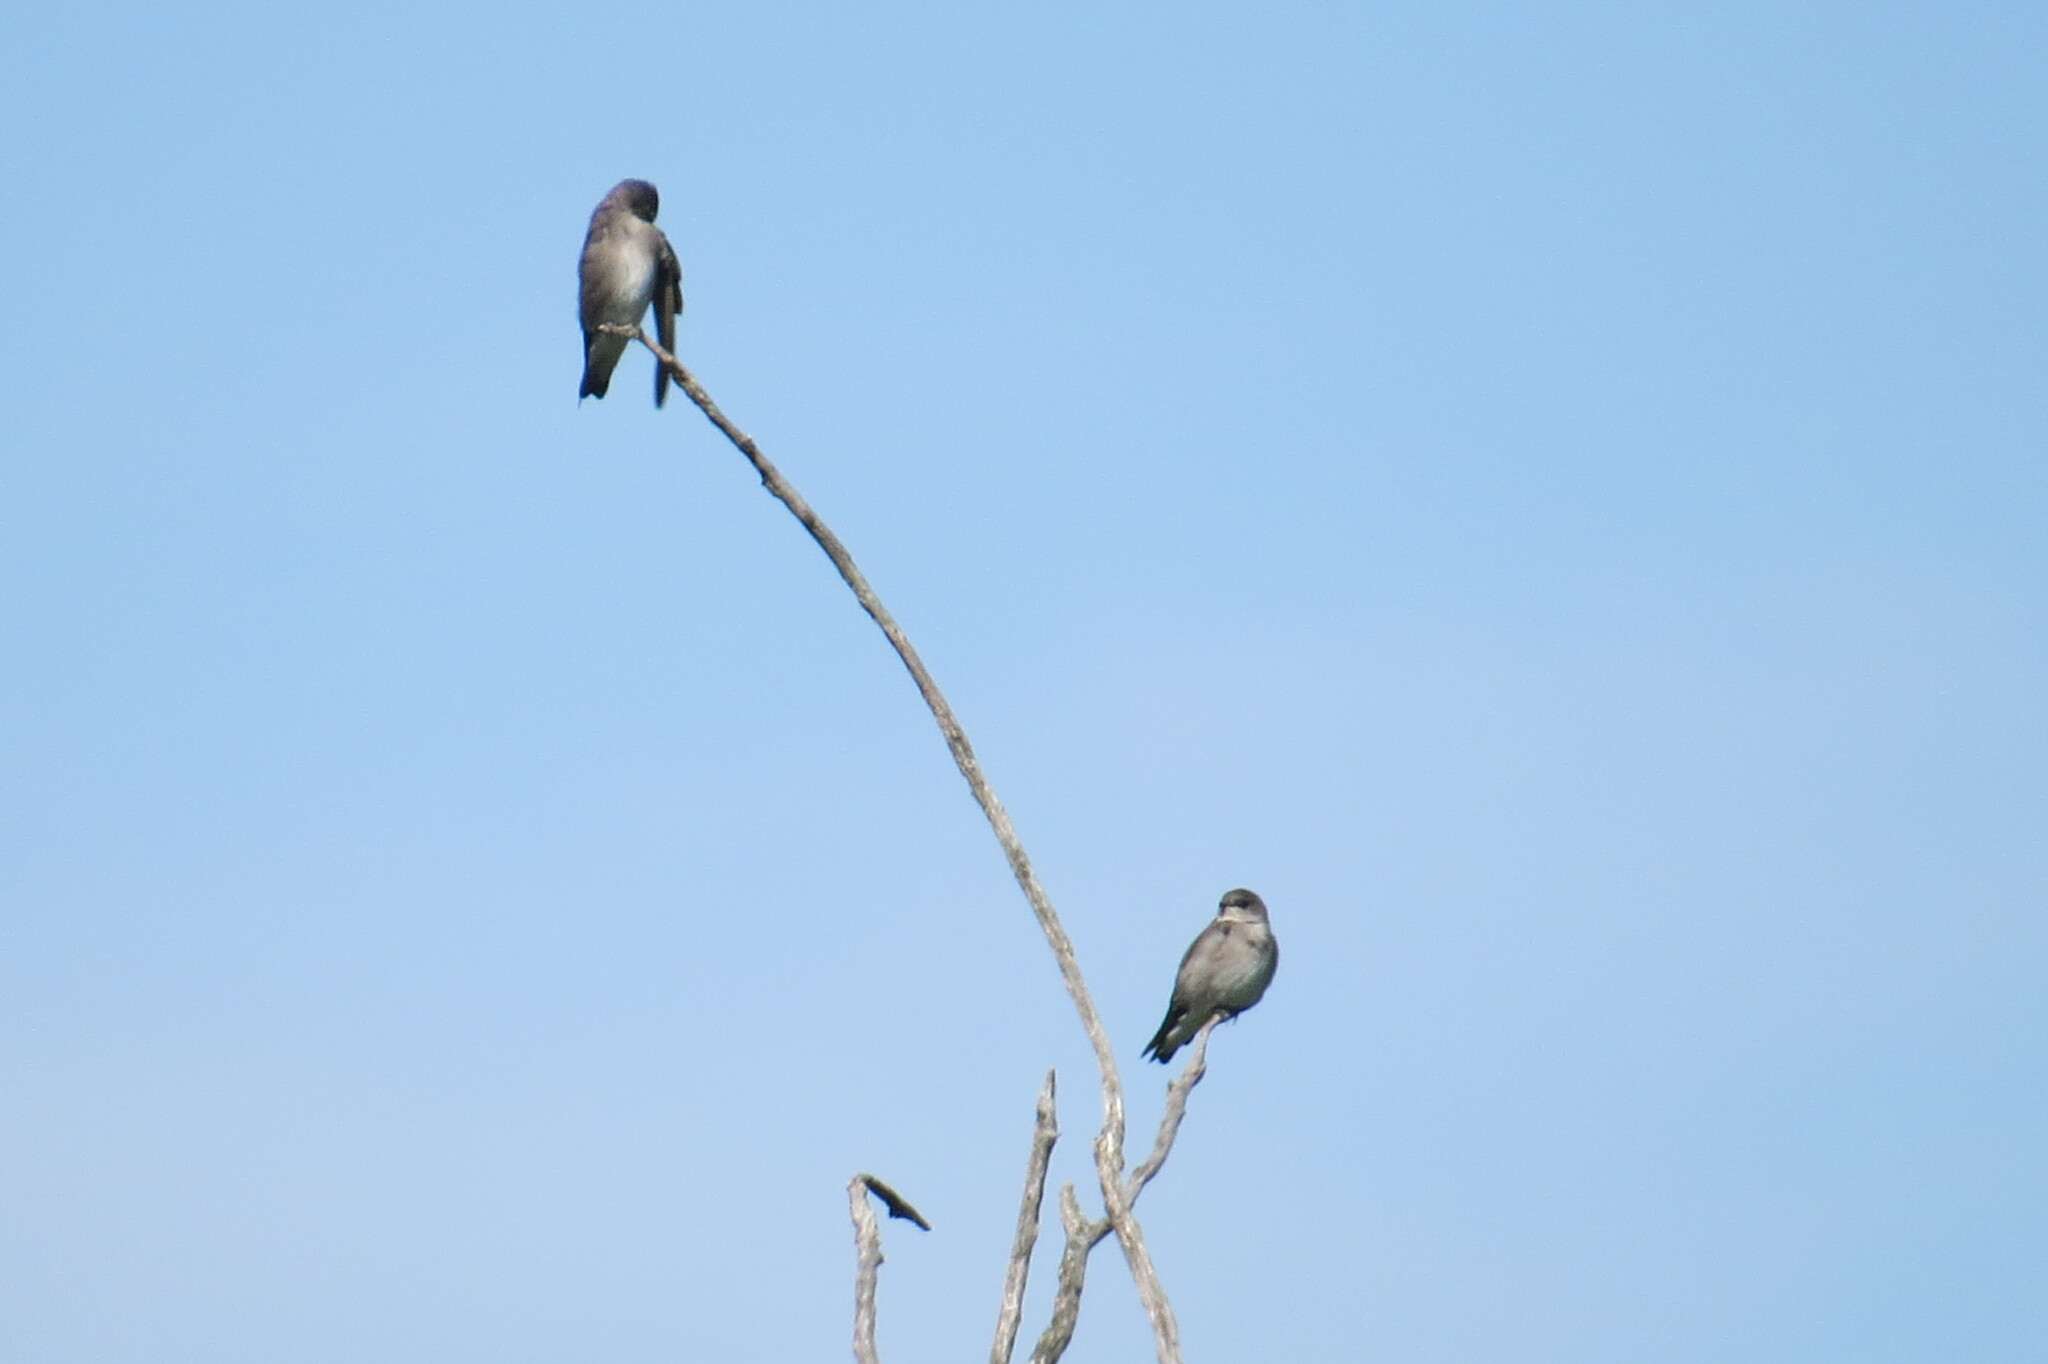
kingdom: Animalia
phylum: Chordata
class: Aves
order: Passeriformes
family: Hirundinidae
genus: Stelgidopteryx
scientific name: Stelgidopteryx serripennis
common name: Northern rough-winged swallow
